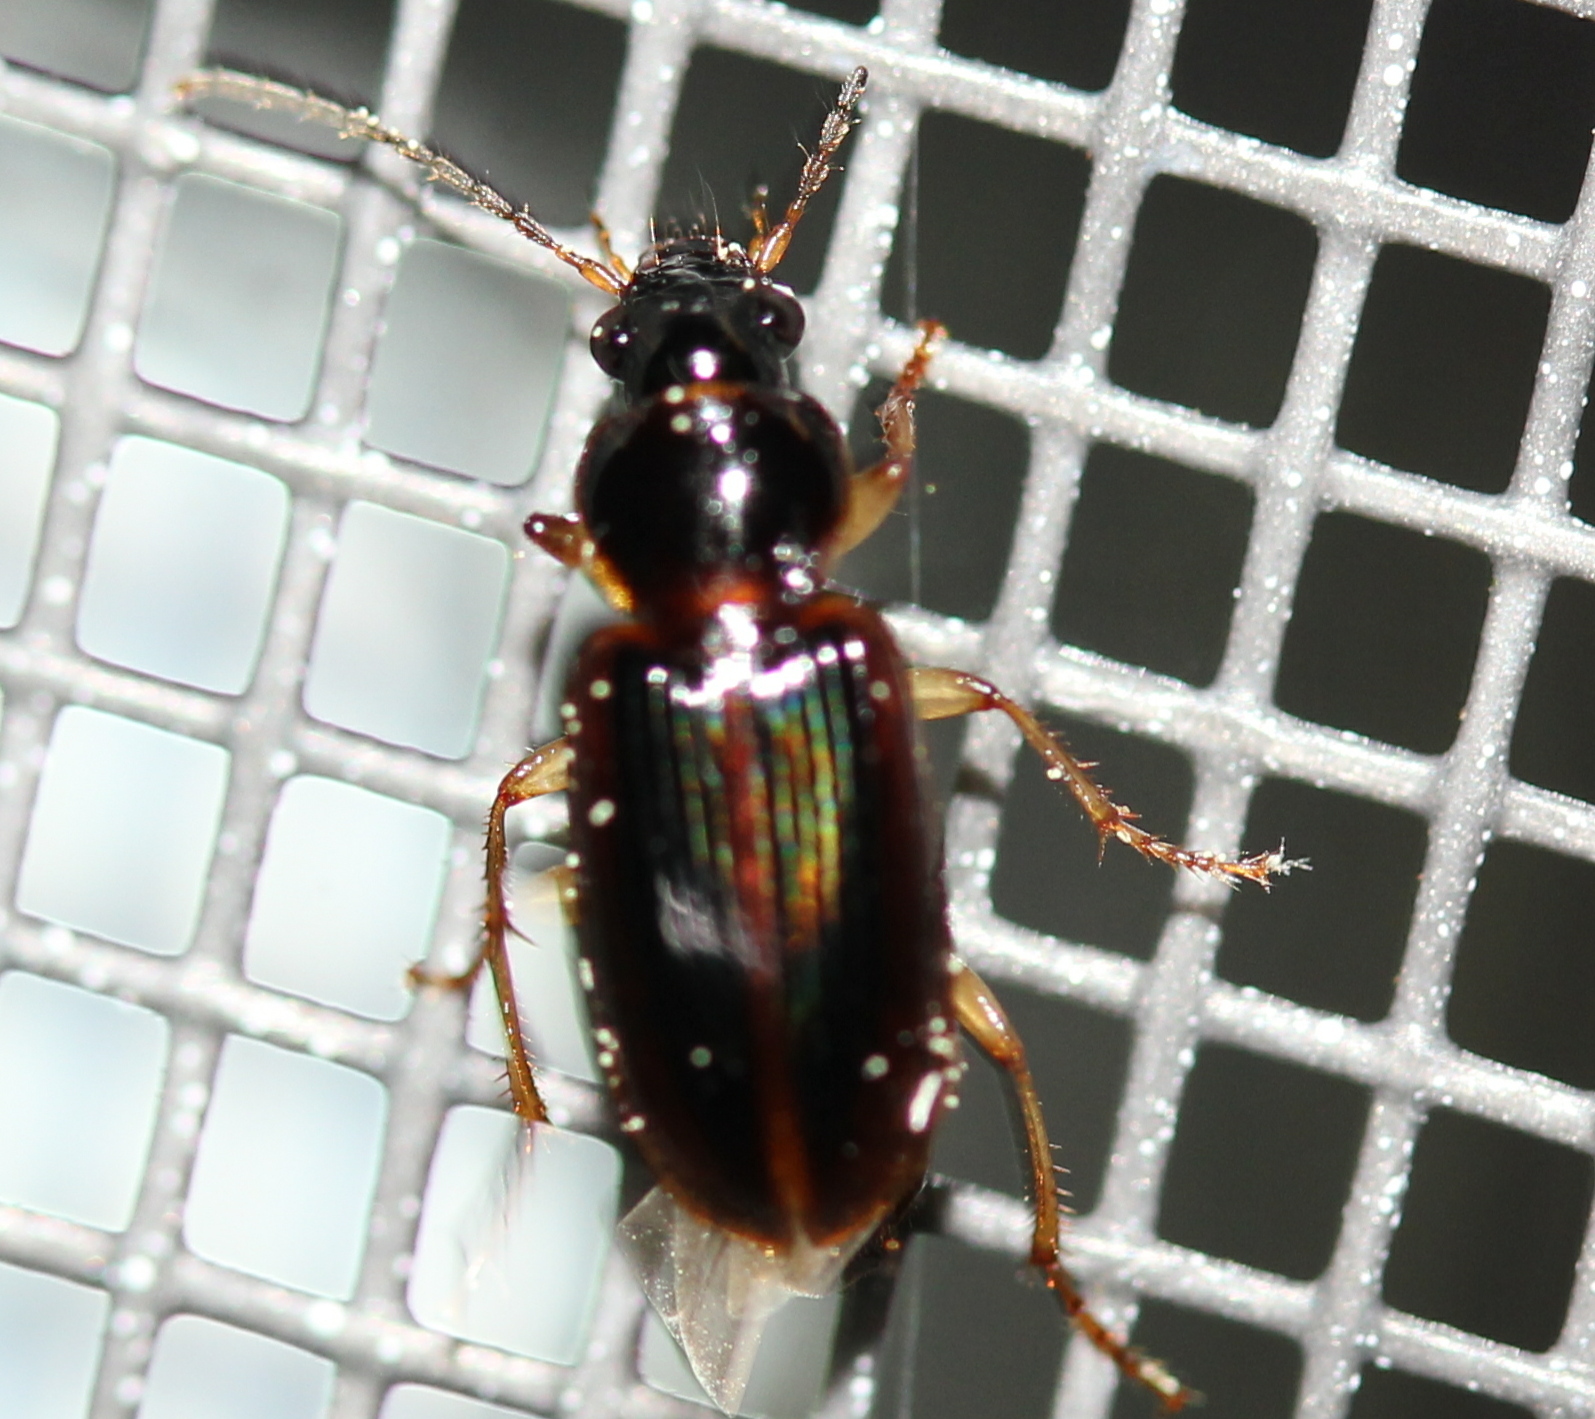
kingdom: Animalia
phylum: Arthropoda
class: Insecta
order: Coleoptera
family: Carabidae
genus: Stenolophus
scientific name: Stenolophus ochropezus
